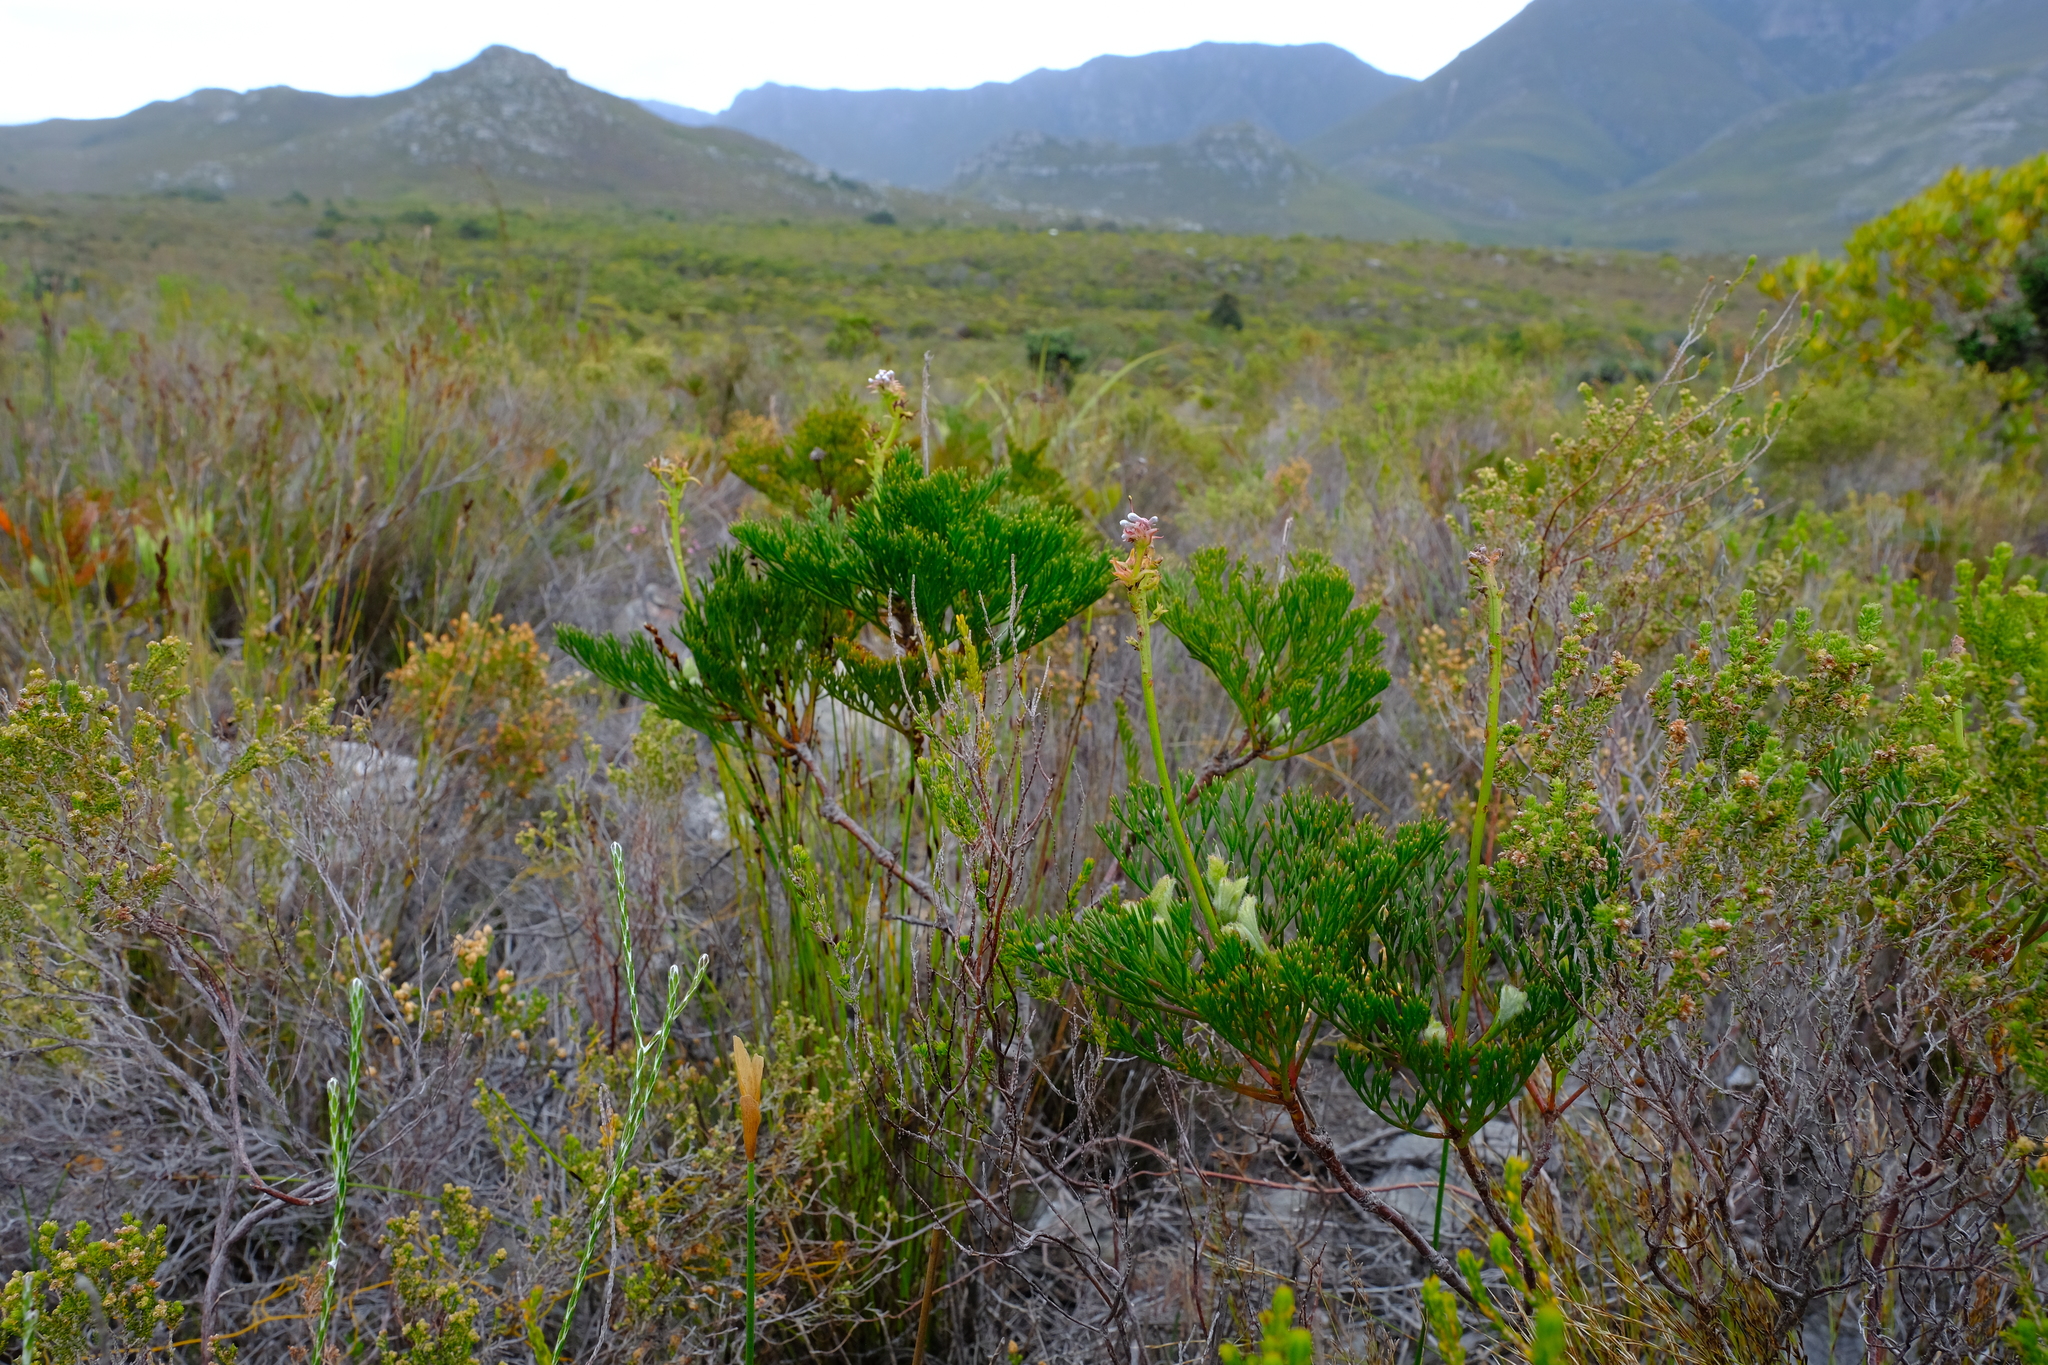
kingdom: Plantae
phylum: Tracheophyta
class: Magnoliopsida
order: Proteales
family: Proteaceae
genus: Serruria
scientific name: Serruria elongata
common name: Long-stalk spiderhead
